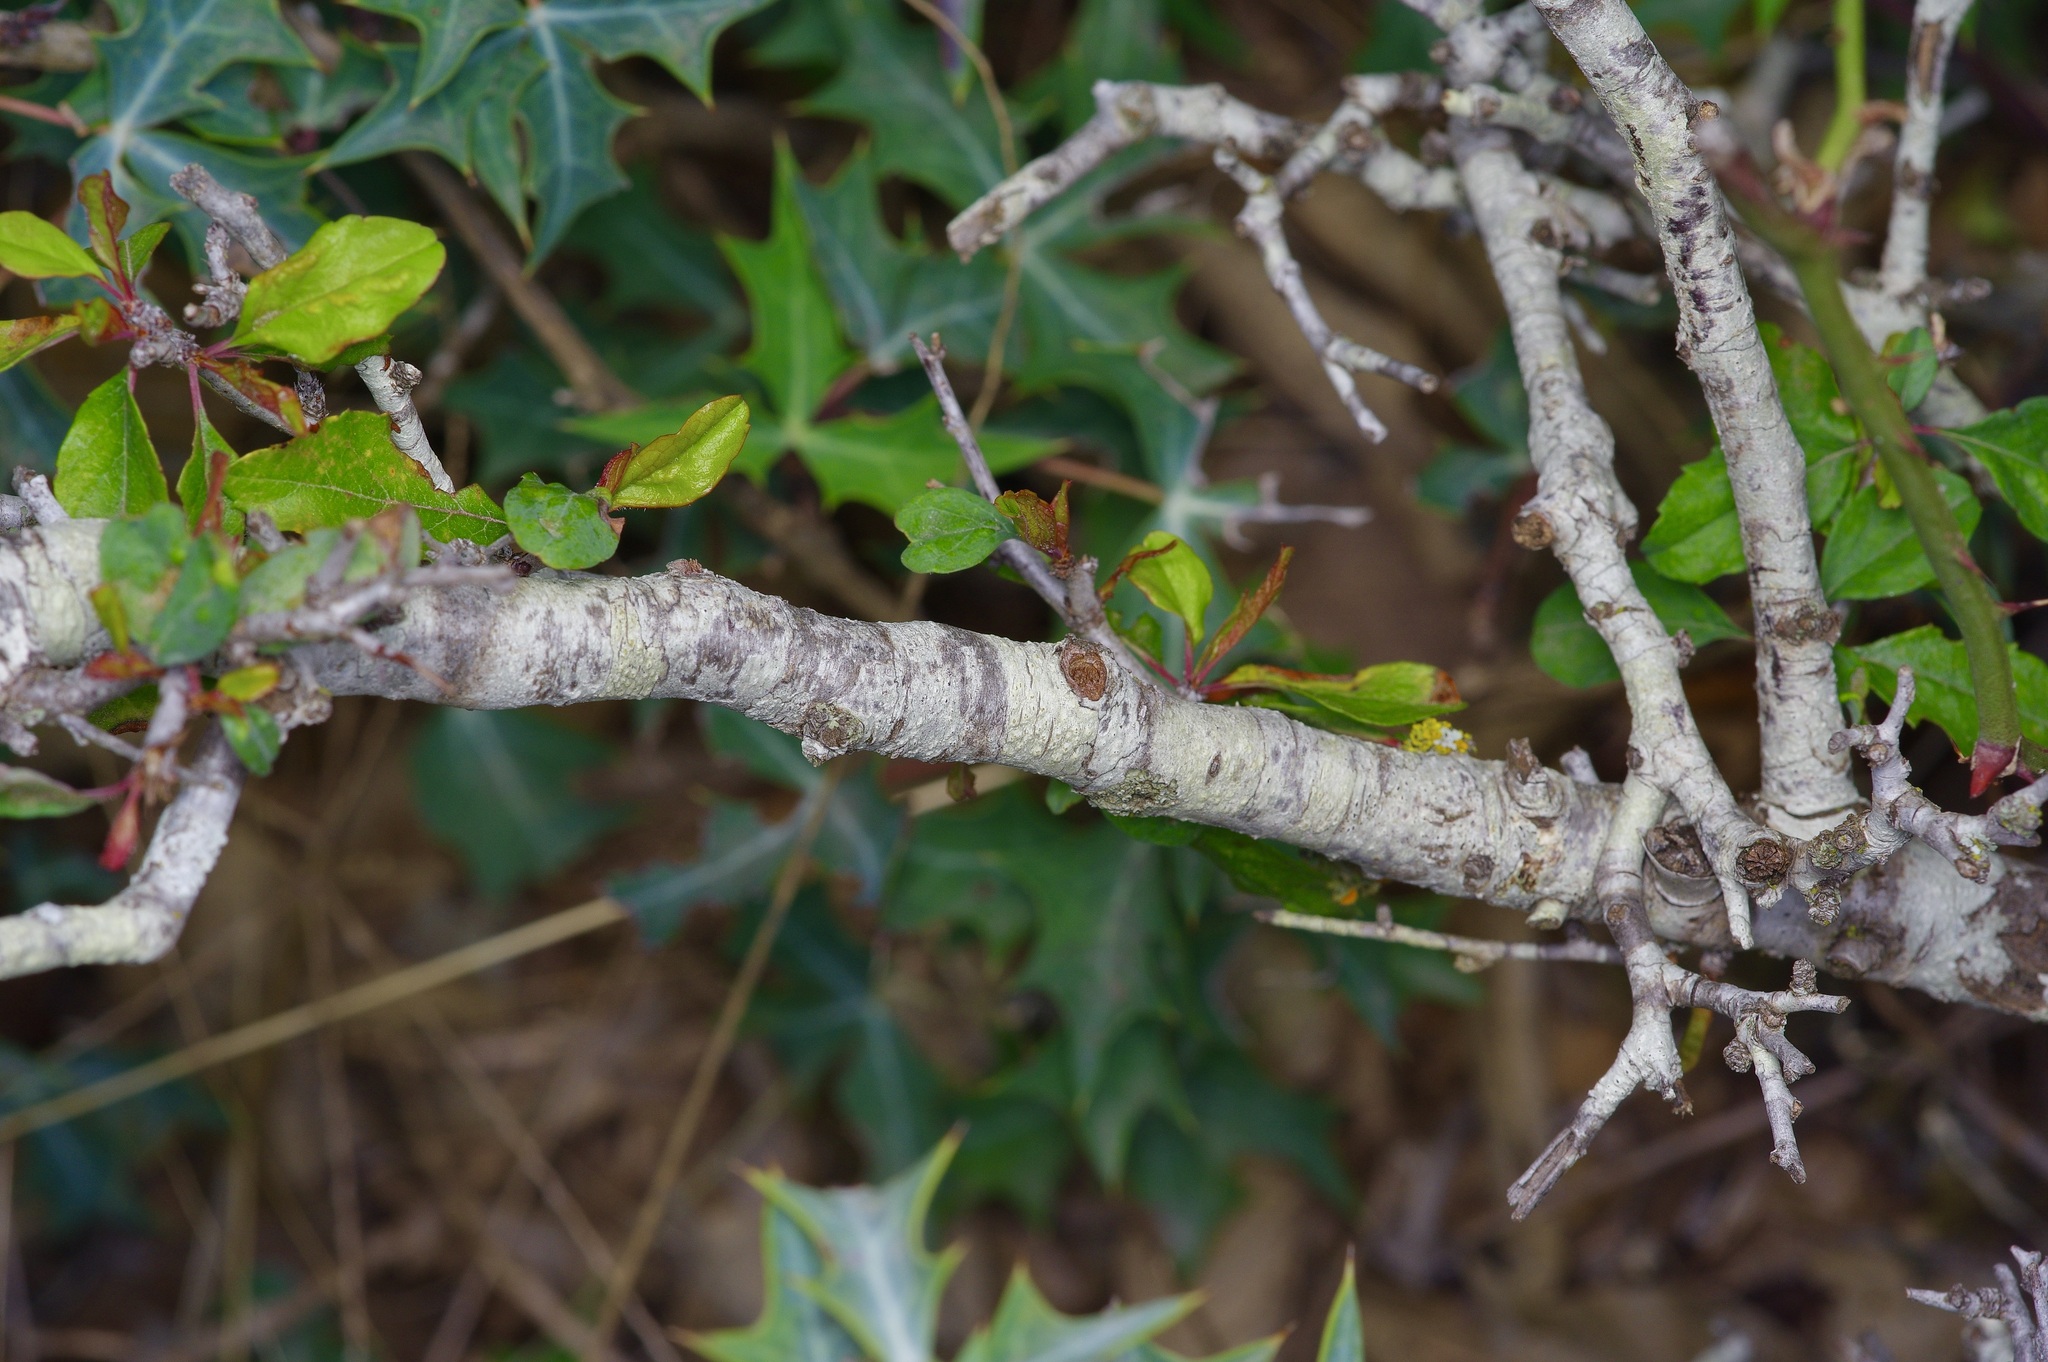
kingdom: Plantae
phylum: Tracheophyta
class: Magnoliopsida
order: Rosales
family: Rosaceae
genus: Prunus
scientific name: Prunus minutiflora
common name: Texas almond
